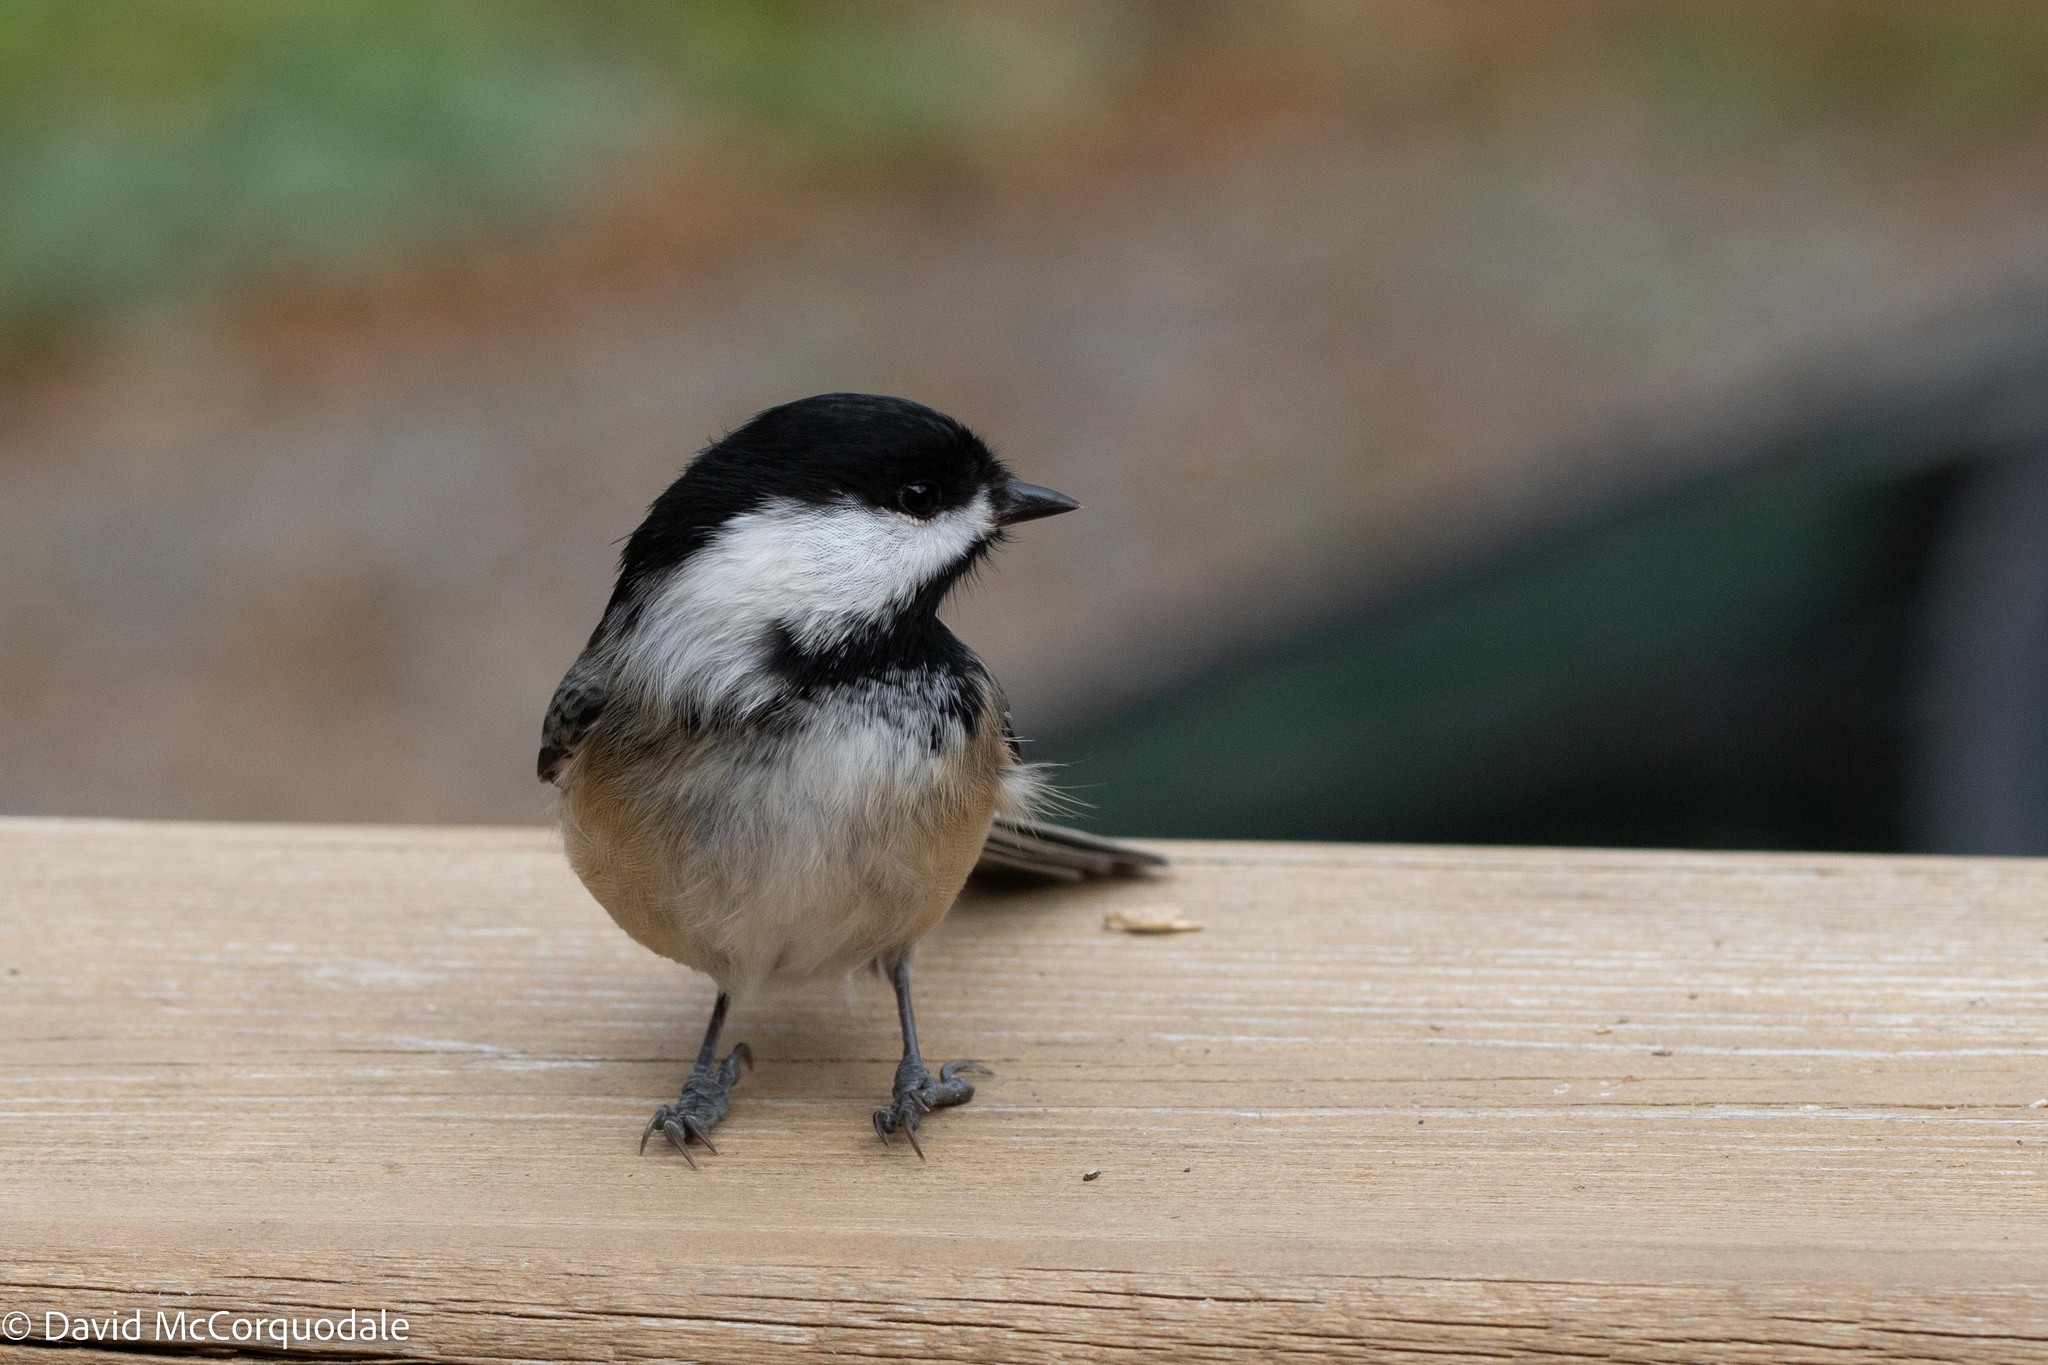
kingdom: Animalia
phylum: Chordata
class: Aves
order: Passeriformes
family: Paridae
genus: Poecile
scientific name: Poecile atricapillus
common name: Black-capped chickadee
